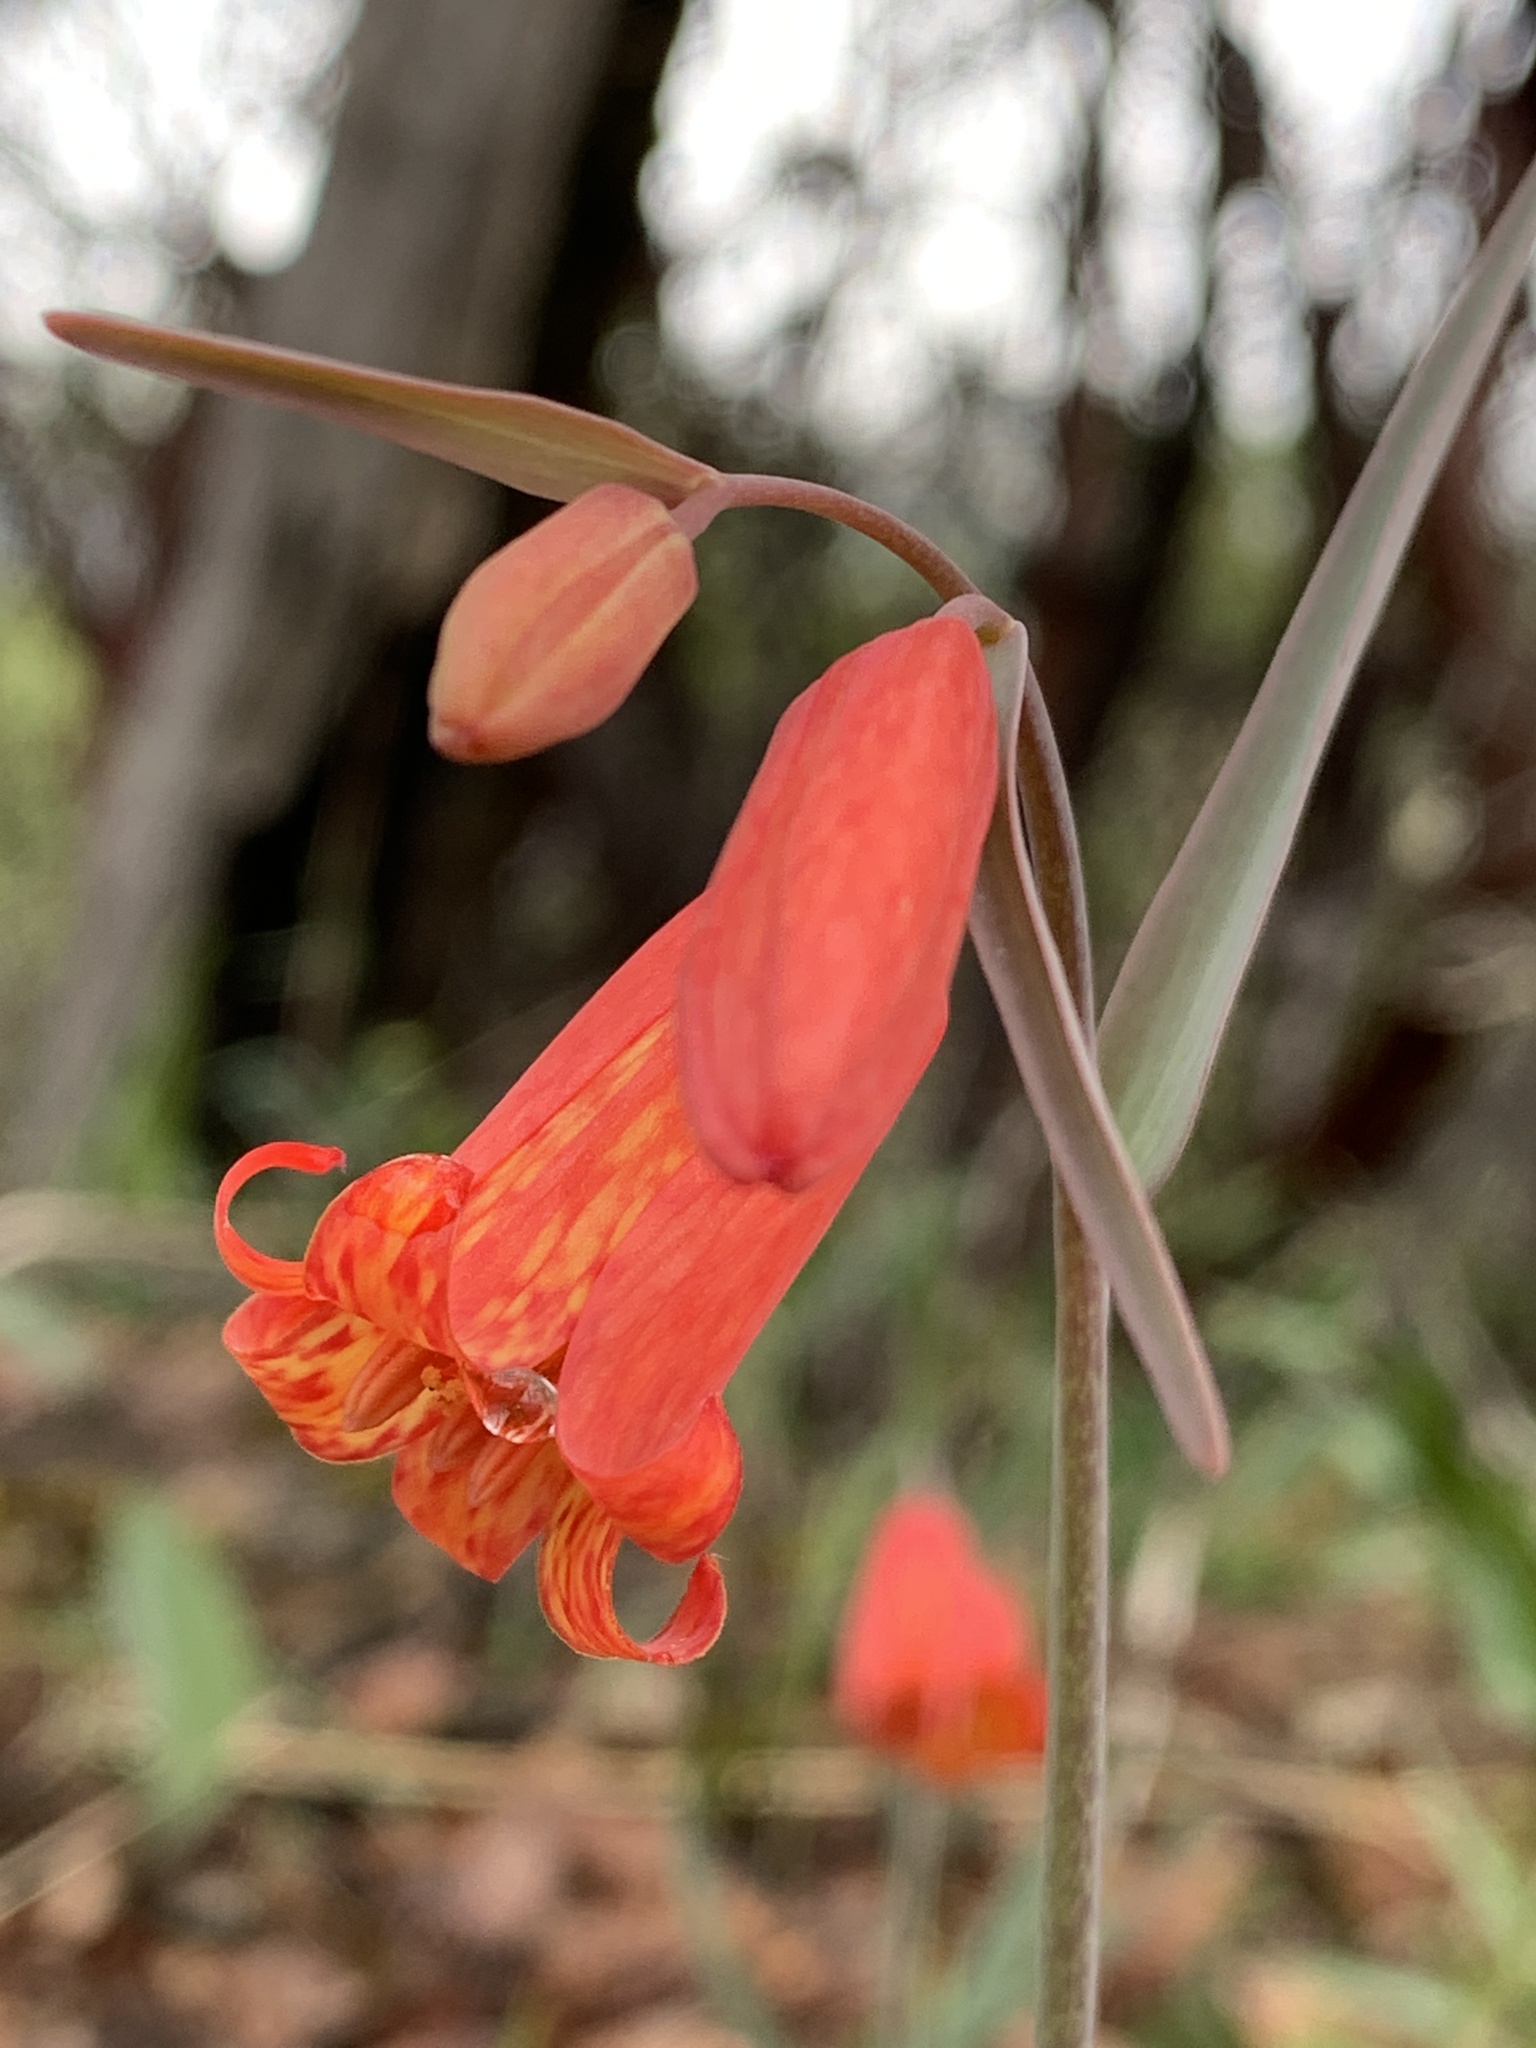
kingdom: Plantae
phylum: Tracheophyta
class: Liliopsida
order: Liliales
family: Liliaceae
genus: Fritillaria
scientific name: Fritillaria recurva
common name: Scarlet fritillary
